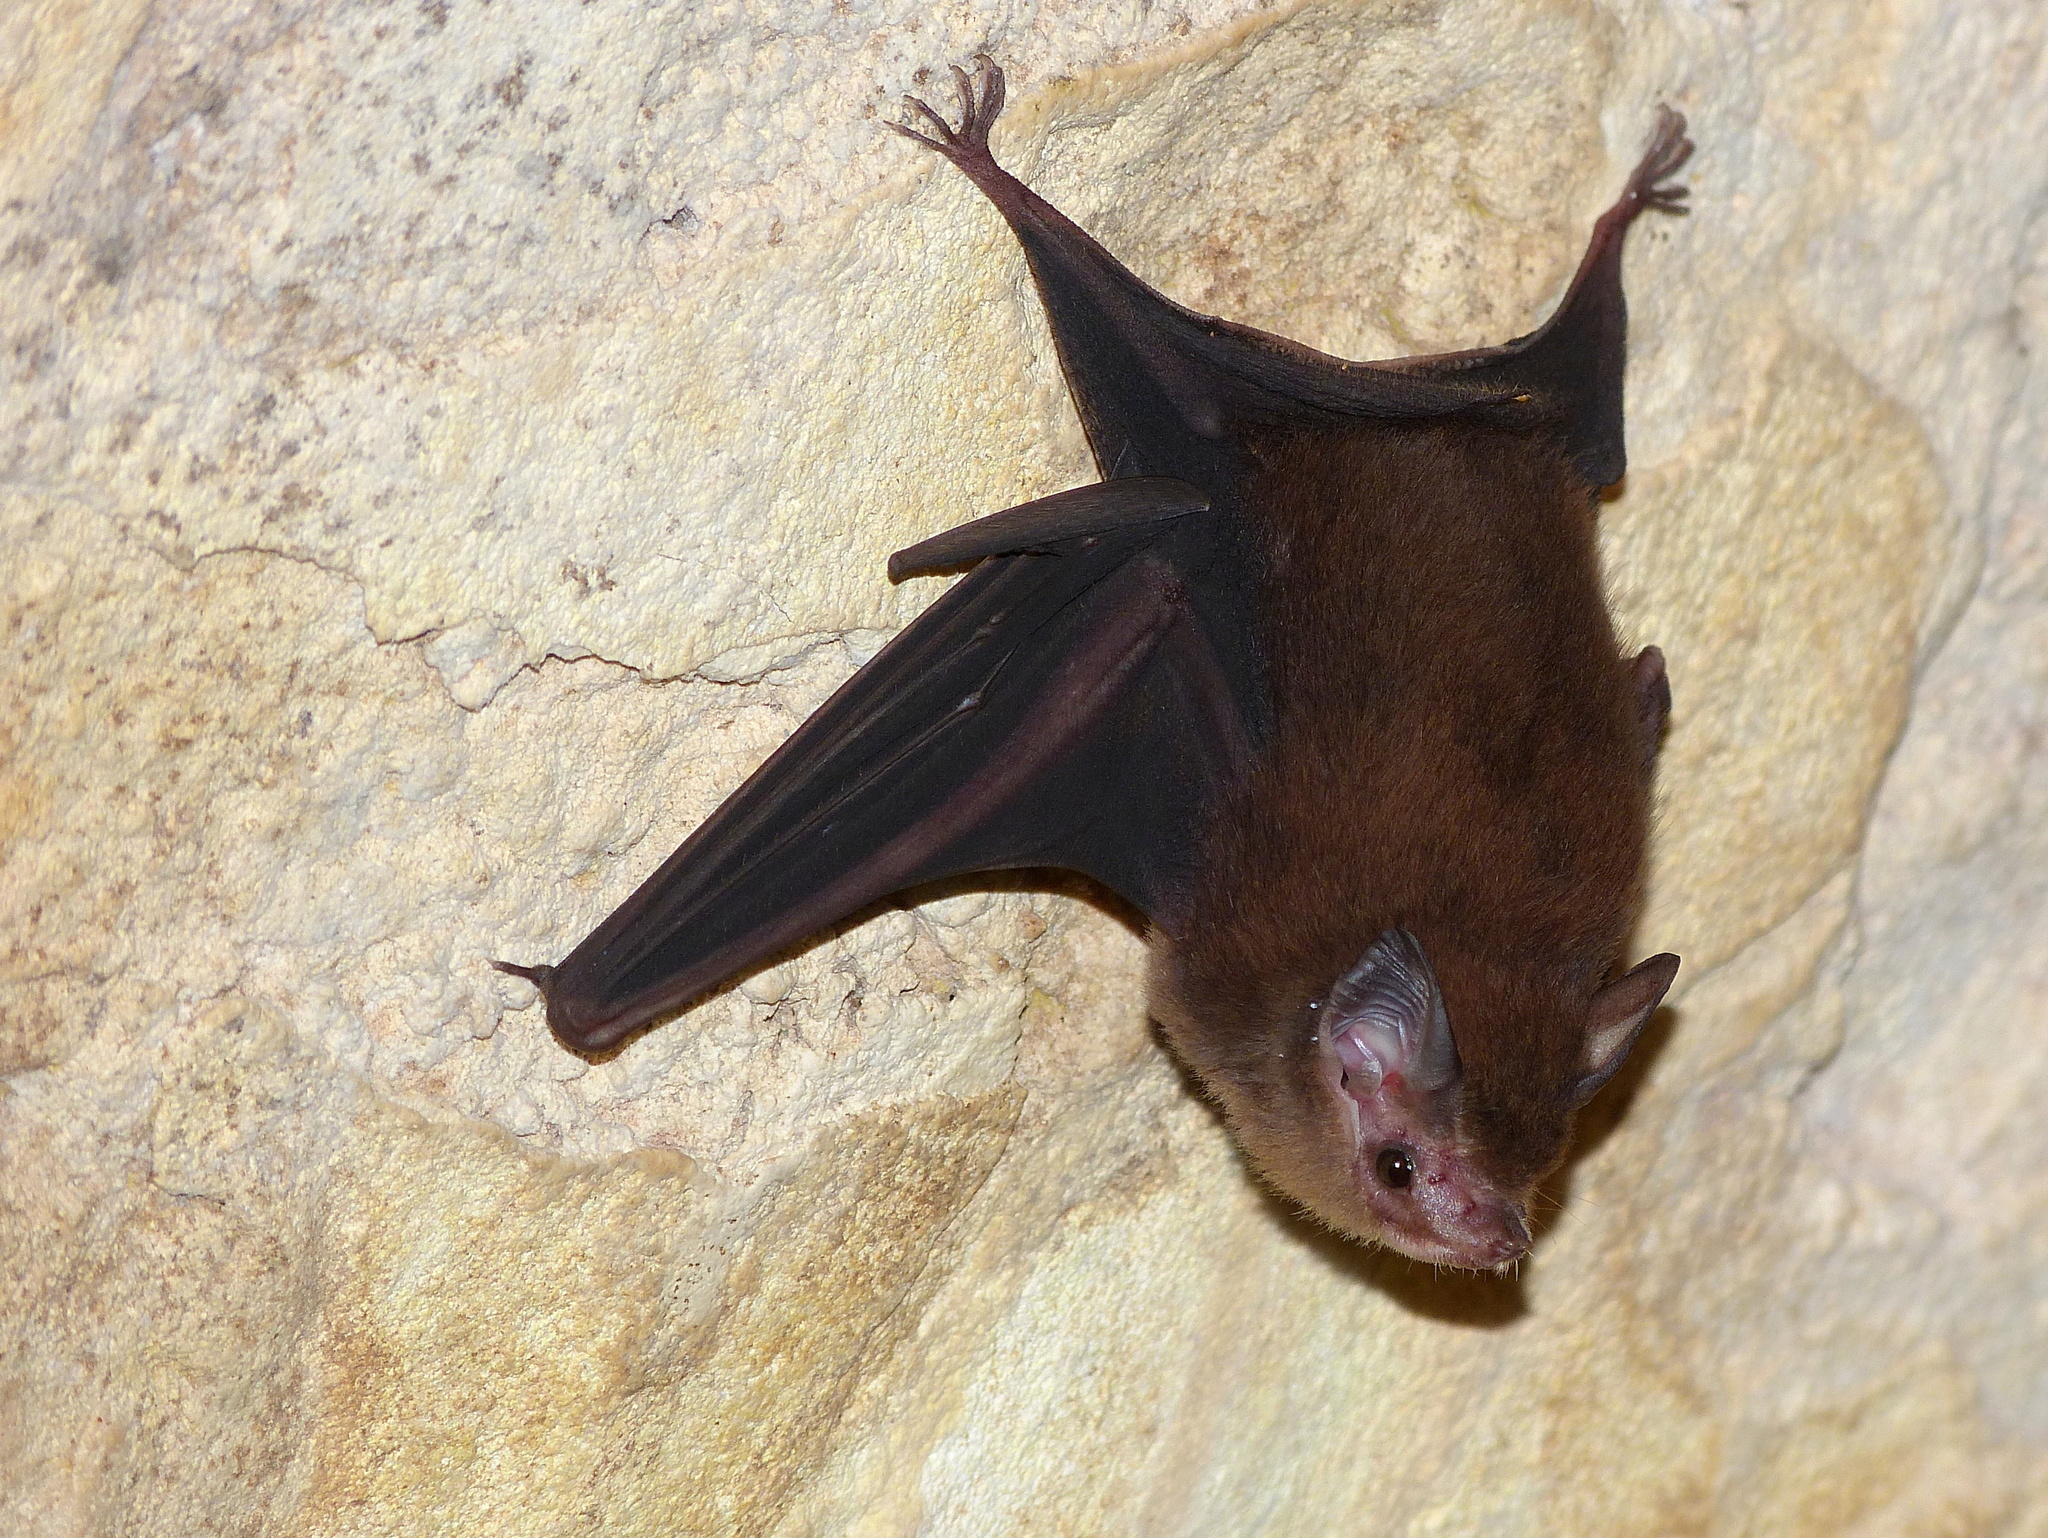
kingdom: Animalia
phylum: Chordata
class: Mammalia
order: Chiroptera
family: Emballonuridae
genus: Peropteryx
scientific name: Peropteryx macrotis
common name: Lesser dog-like bat
